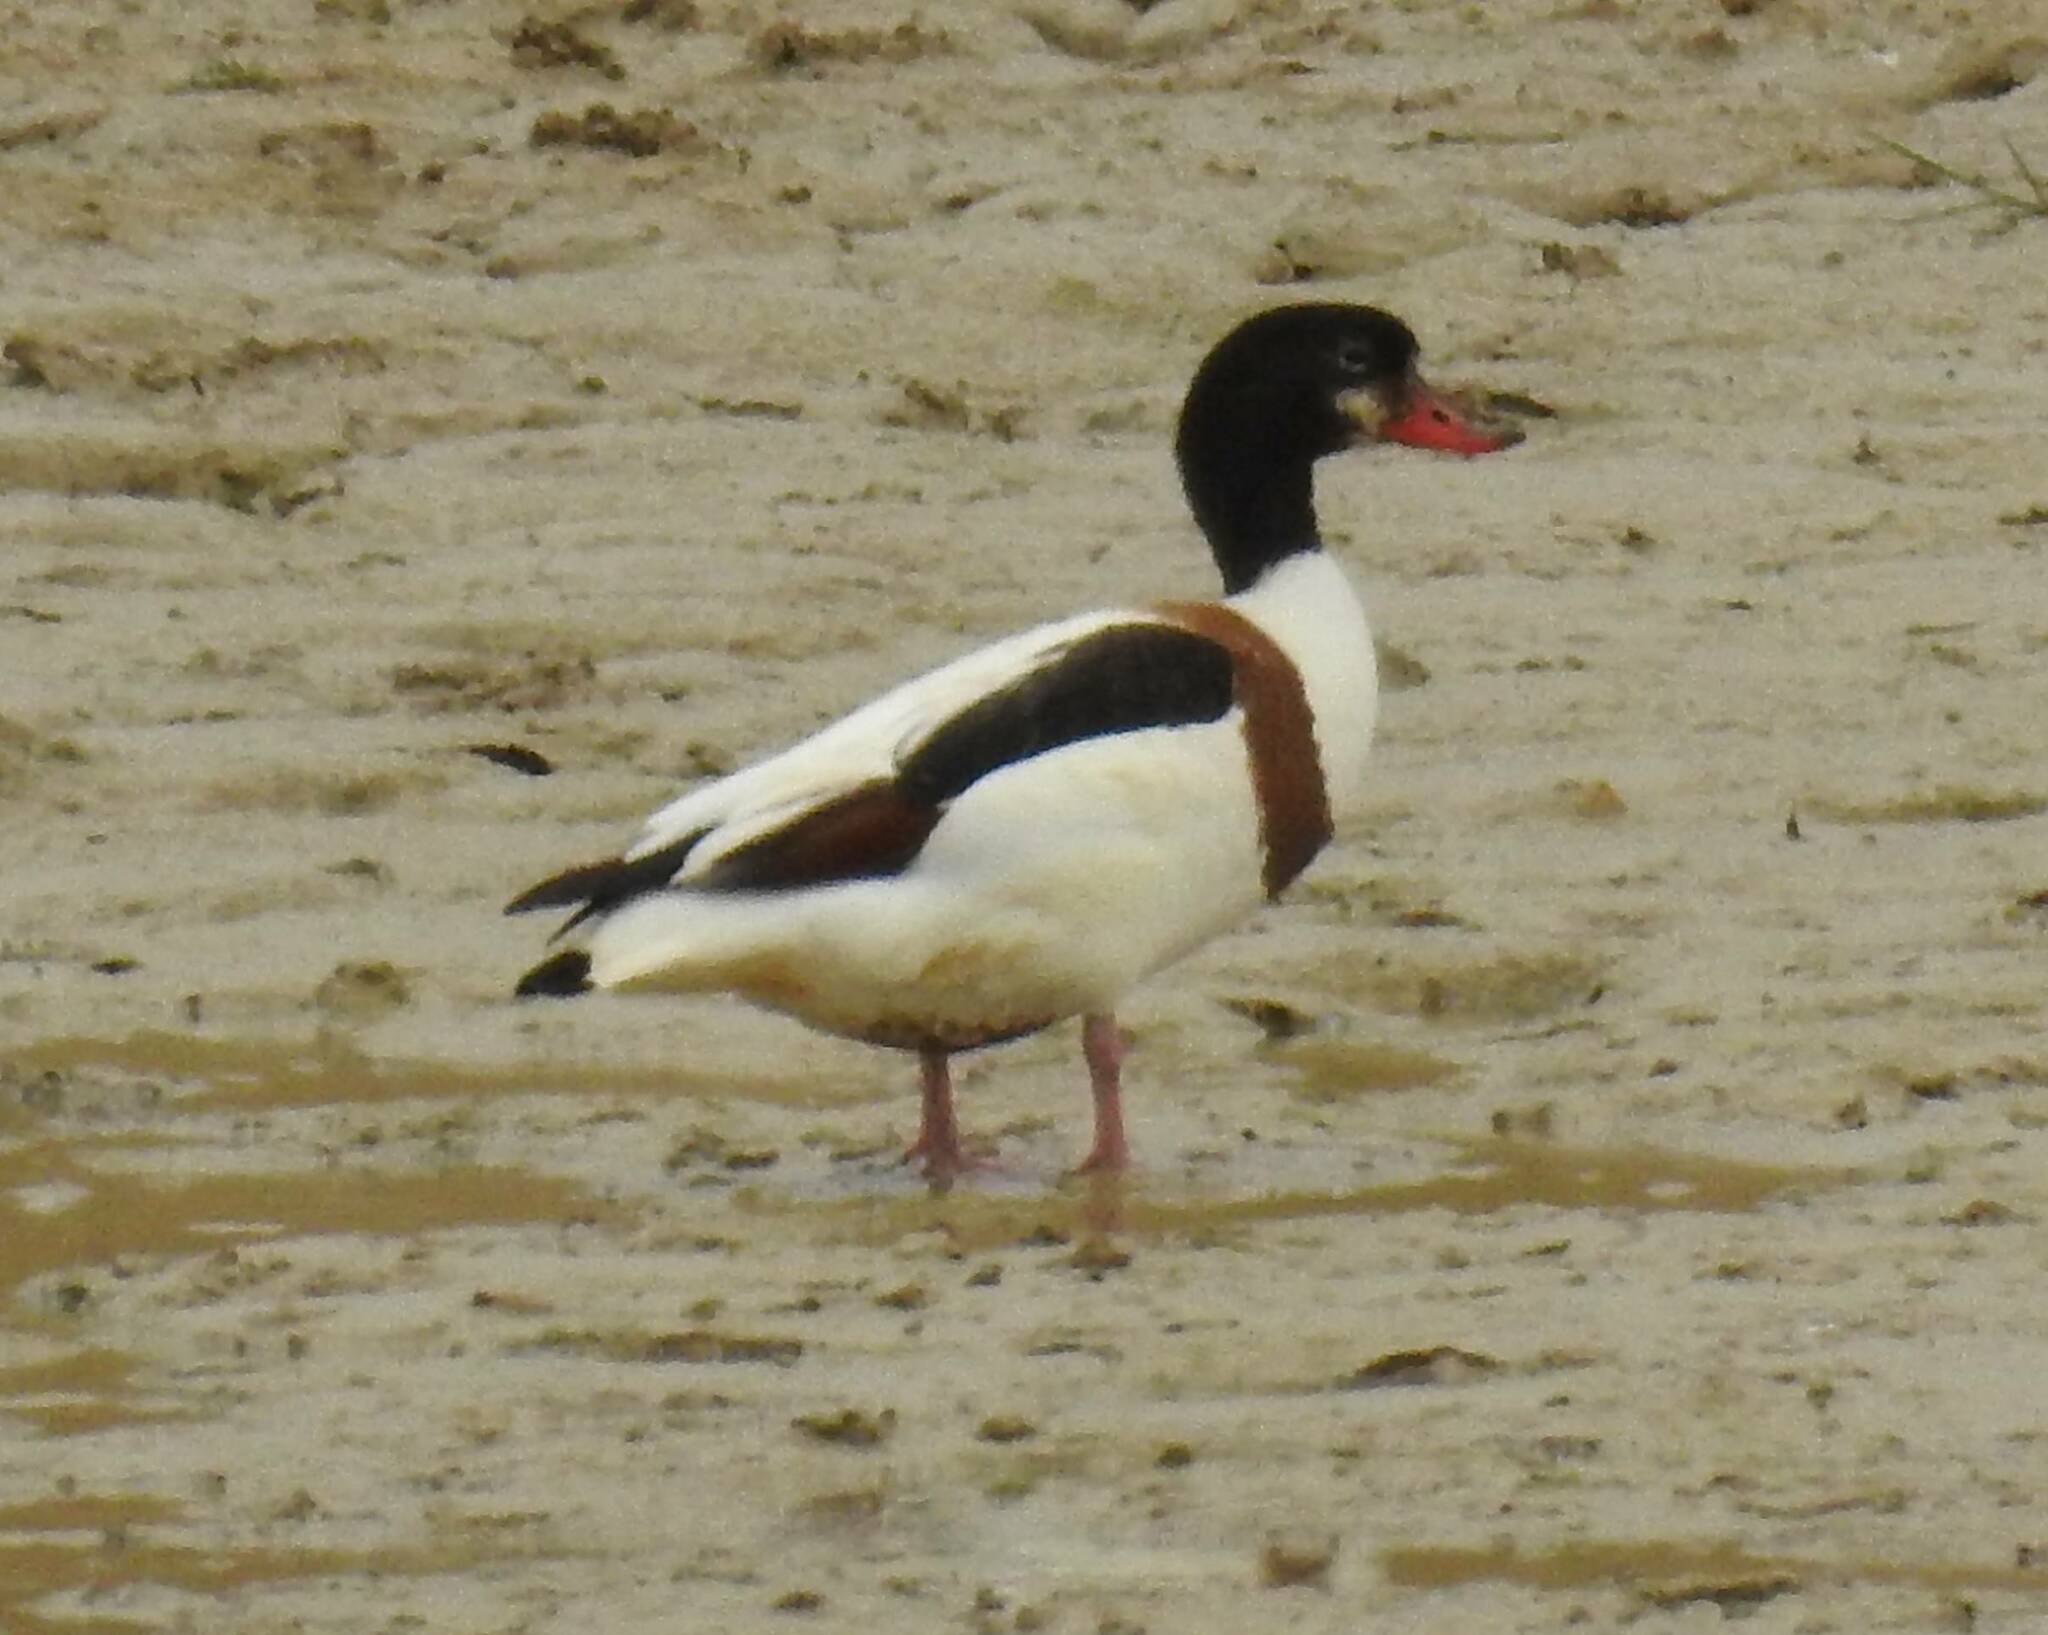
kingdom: Animalia
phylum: Chordata
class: Aves
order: Anseriformes
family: Anatidae
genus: Tadorna
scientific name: Tadorna tadorna
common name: Common shelduck
